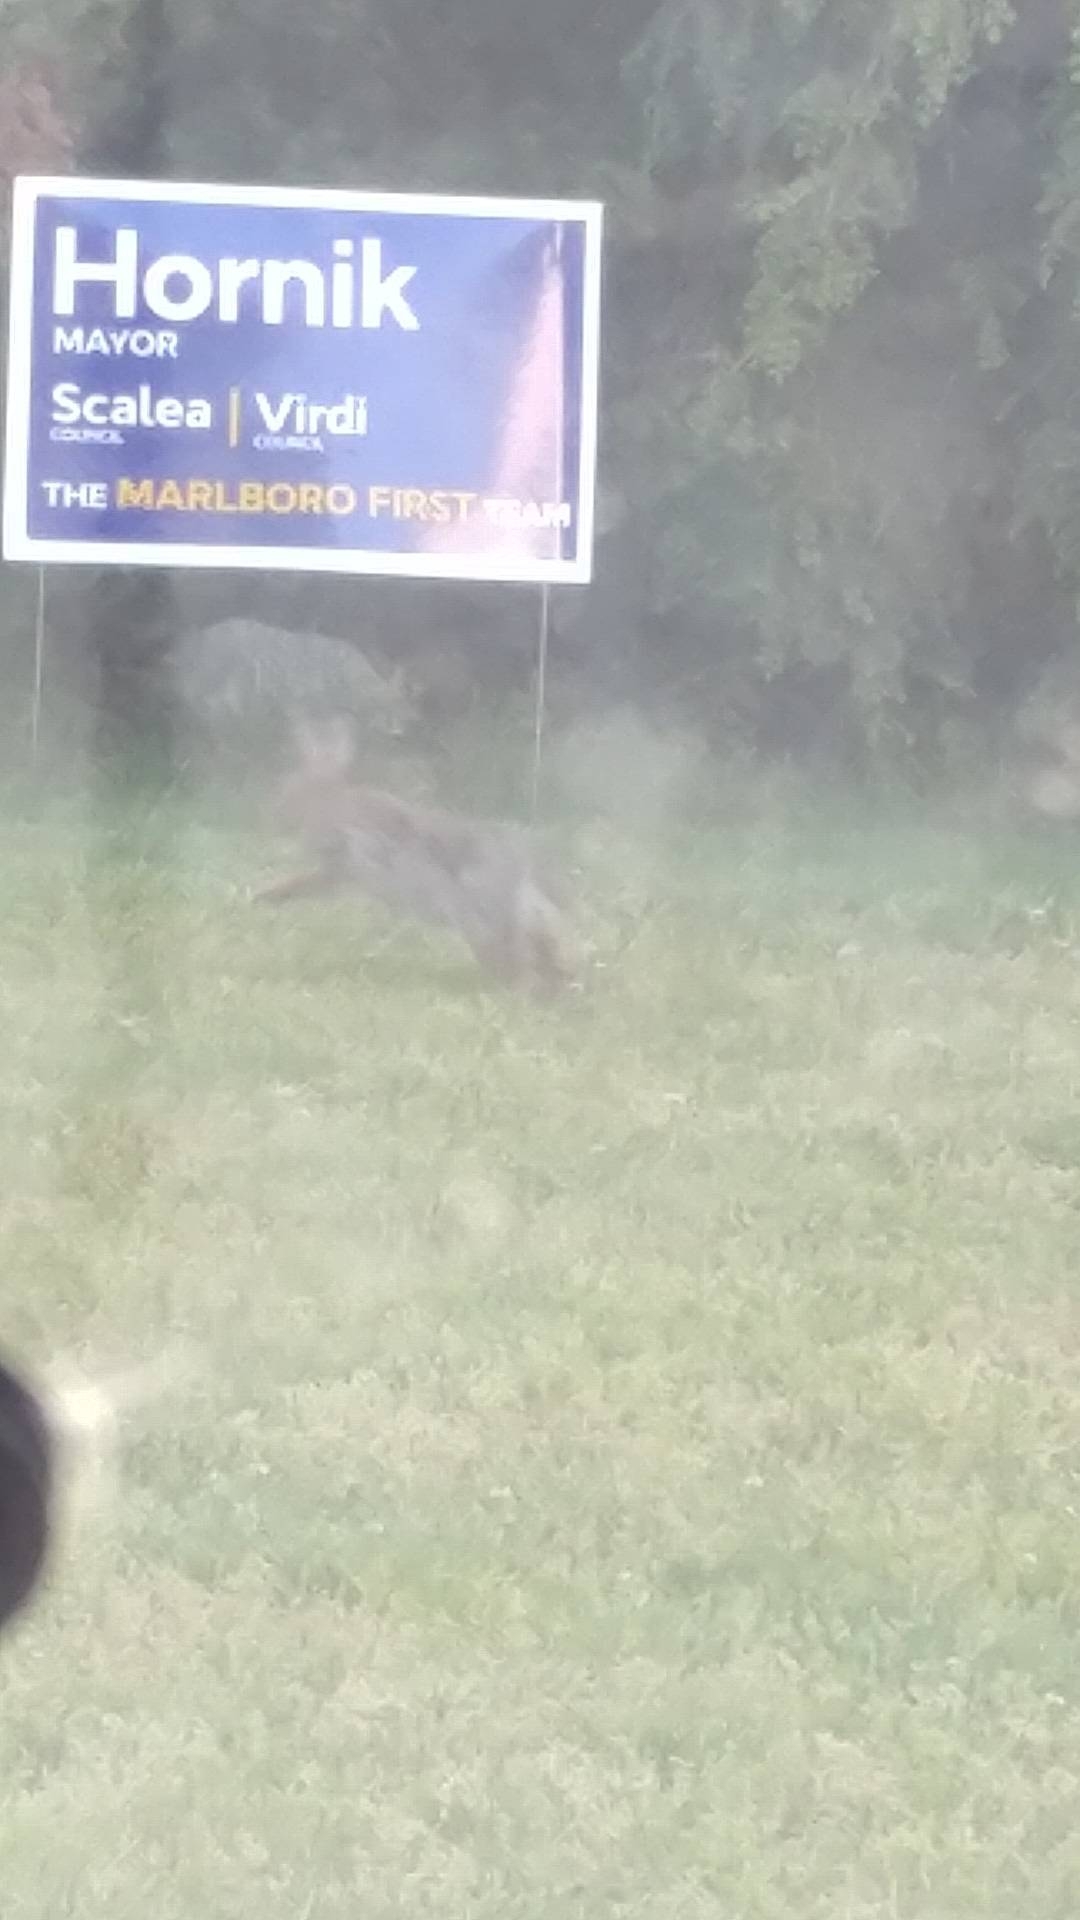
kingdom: Animalia
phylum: Chordata
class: Mammalia
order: Lagomorpha
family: Leporidae
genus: Sylvilagus
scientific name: Sylvilagus floridanus
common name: Eastern cottontail
